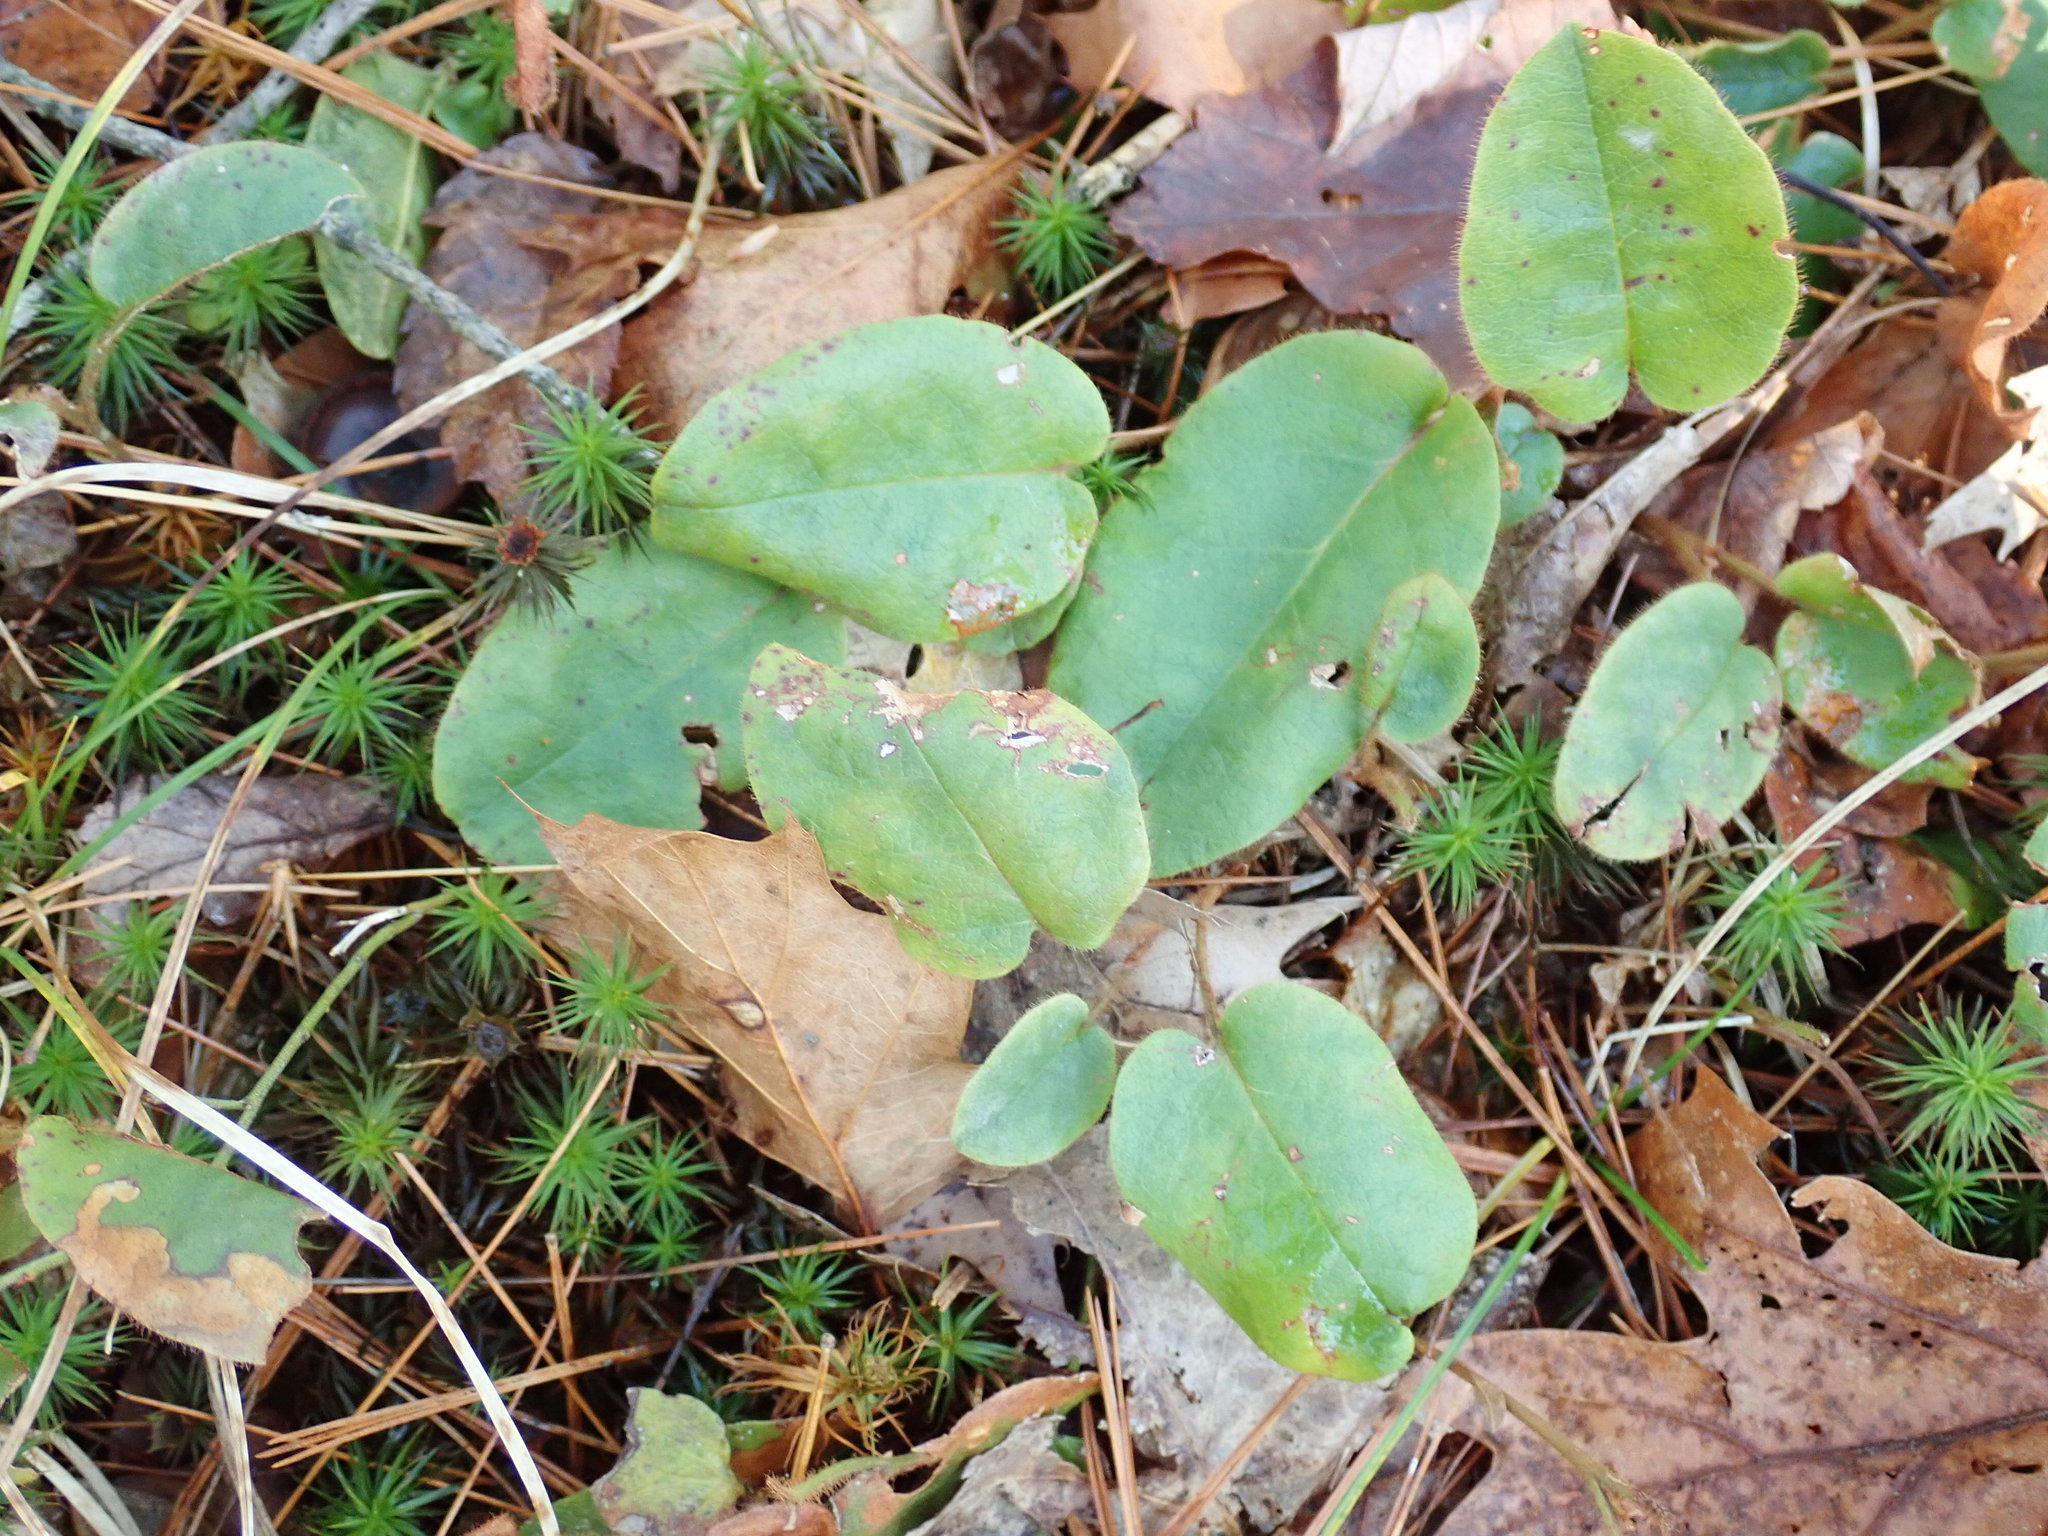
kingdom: Plantae
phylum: Tracheophyta
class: Magnoliopsida
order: Ericales
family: Ericaceae
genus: Epigaea
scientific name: Epigaea repens
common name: Gravelroot
